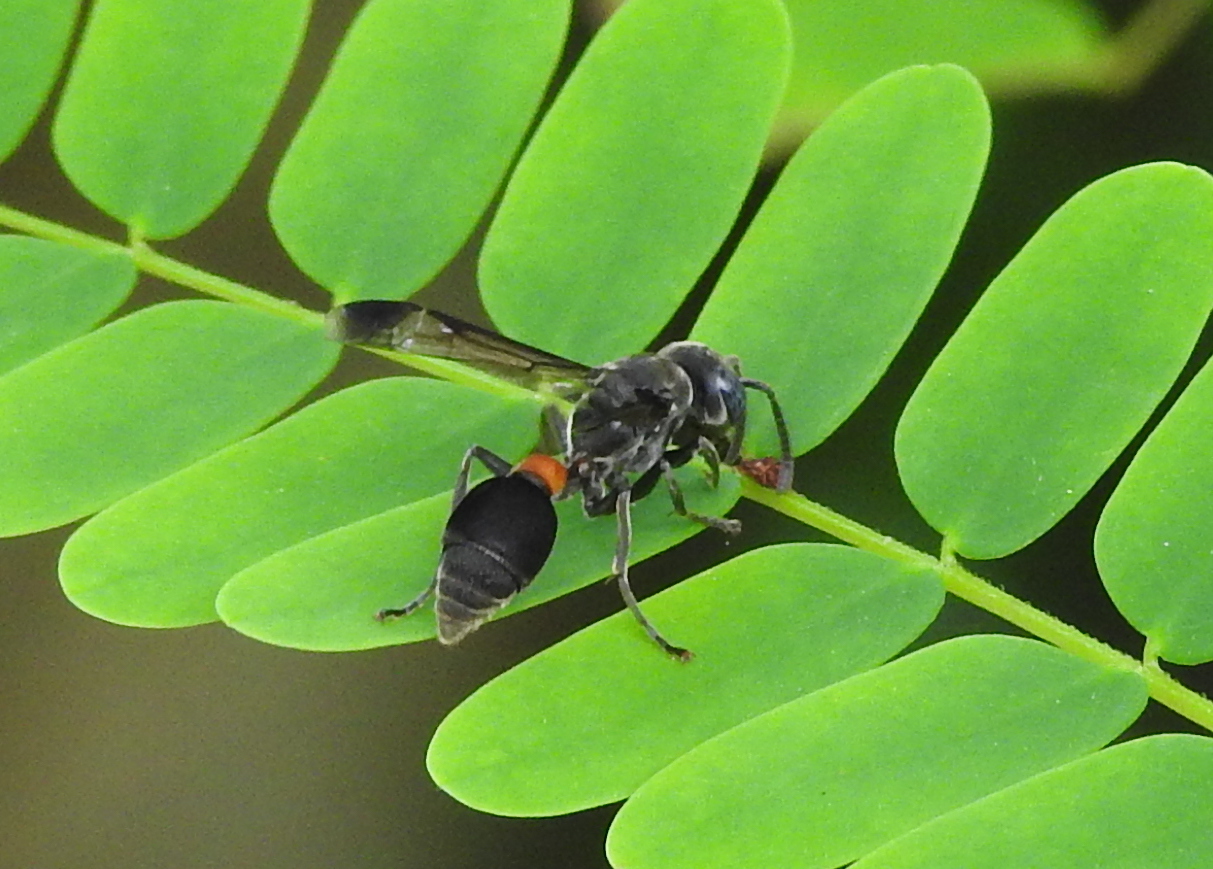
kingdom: Animalia
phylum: Arthropoda
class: Insecta
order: Hymenoptera
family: Vespidae
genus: Ropalidia
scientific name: Ropalidia sumatrae
